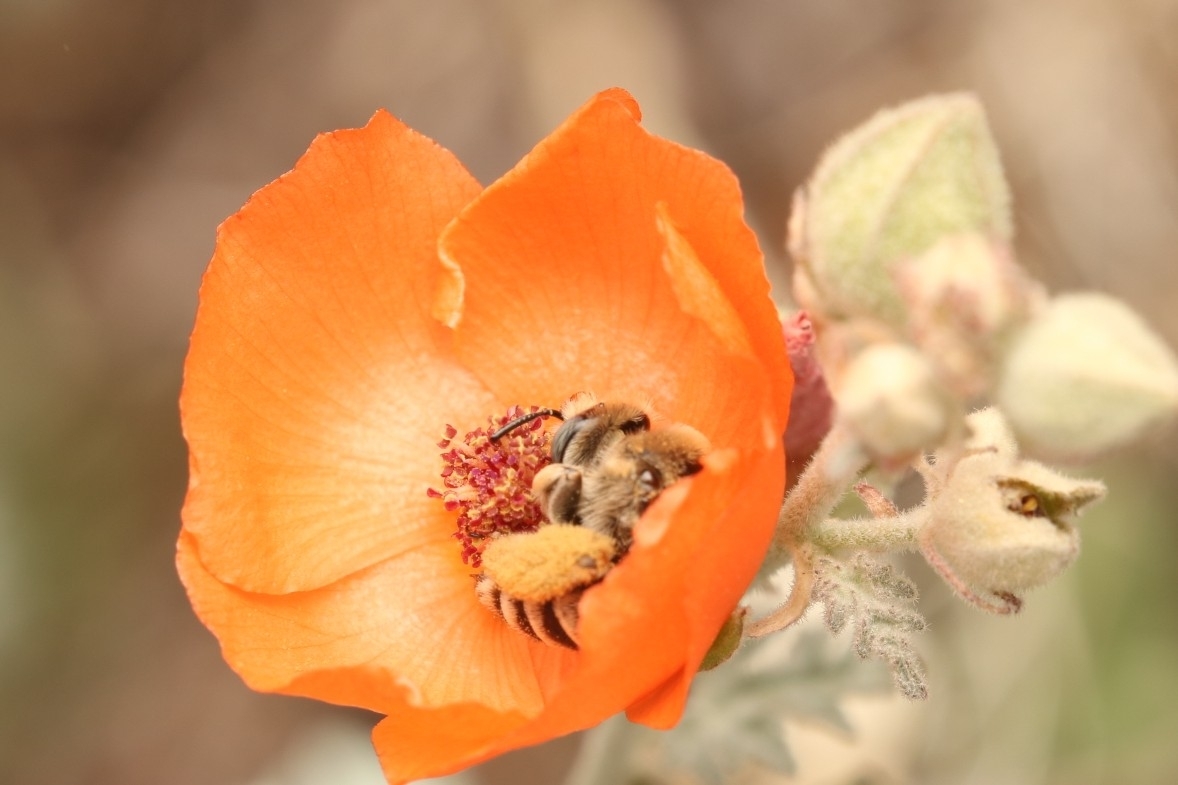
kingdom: Animalia
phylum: Arthropoda
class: Insecta
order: Hymenoptera
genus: Coquillettapis
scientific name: Coquillettapis
